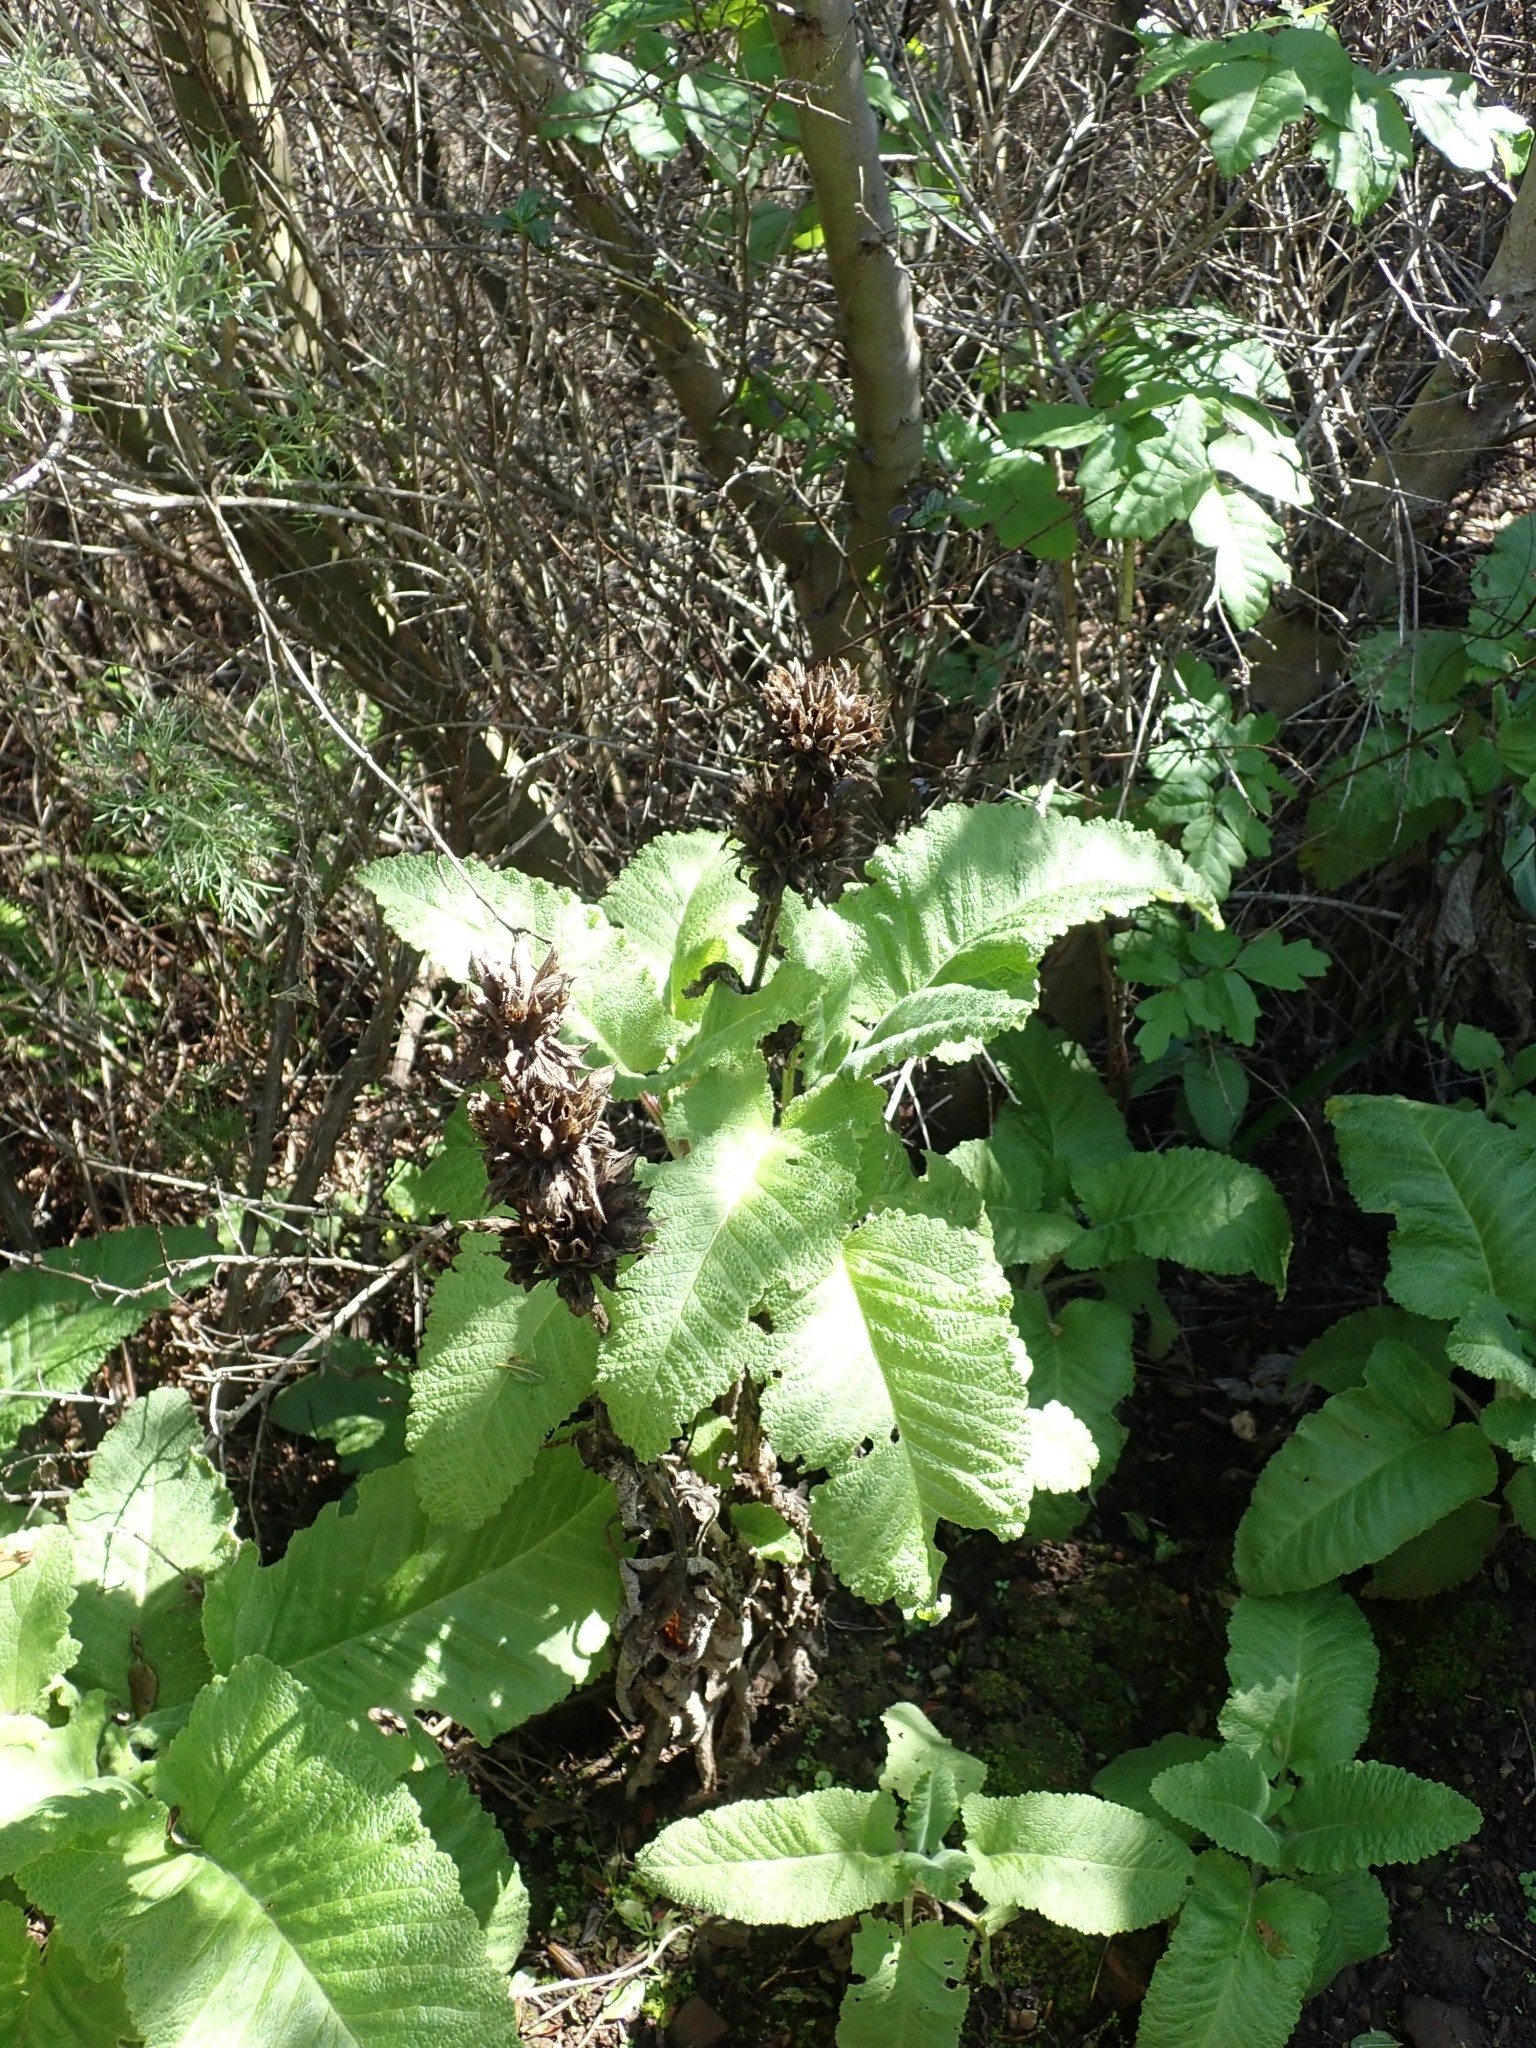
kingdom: Plantae
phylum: Tracheophyta
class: Magnoliopsida
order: Lamiales
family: Lamiaceae
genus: Salvia
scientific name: Salvia spathacea
